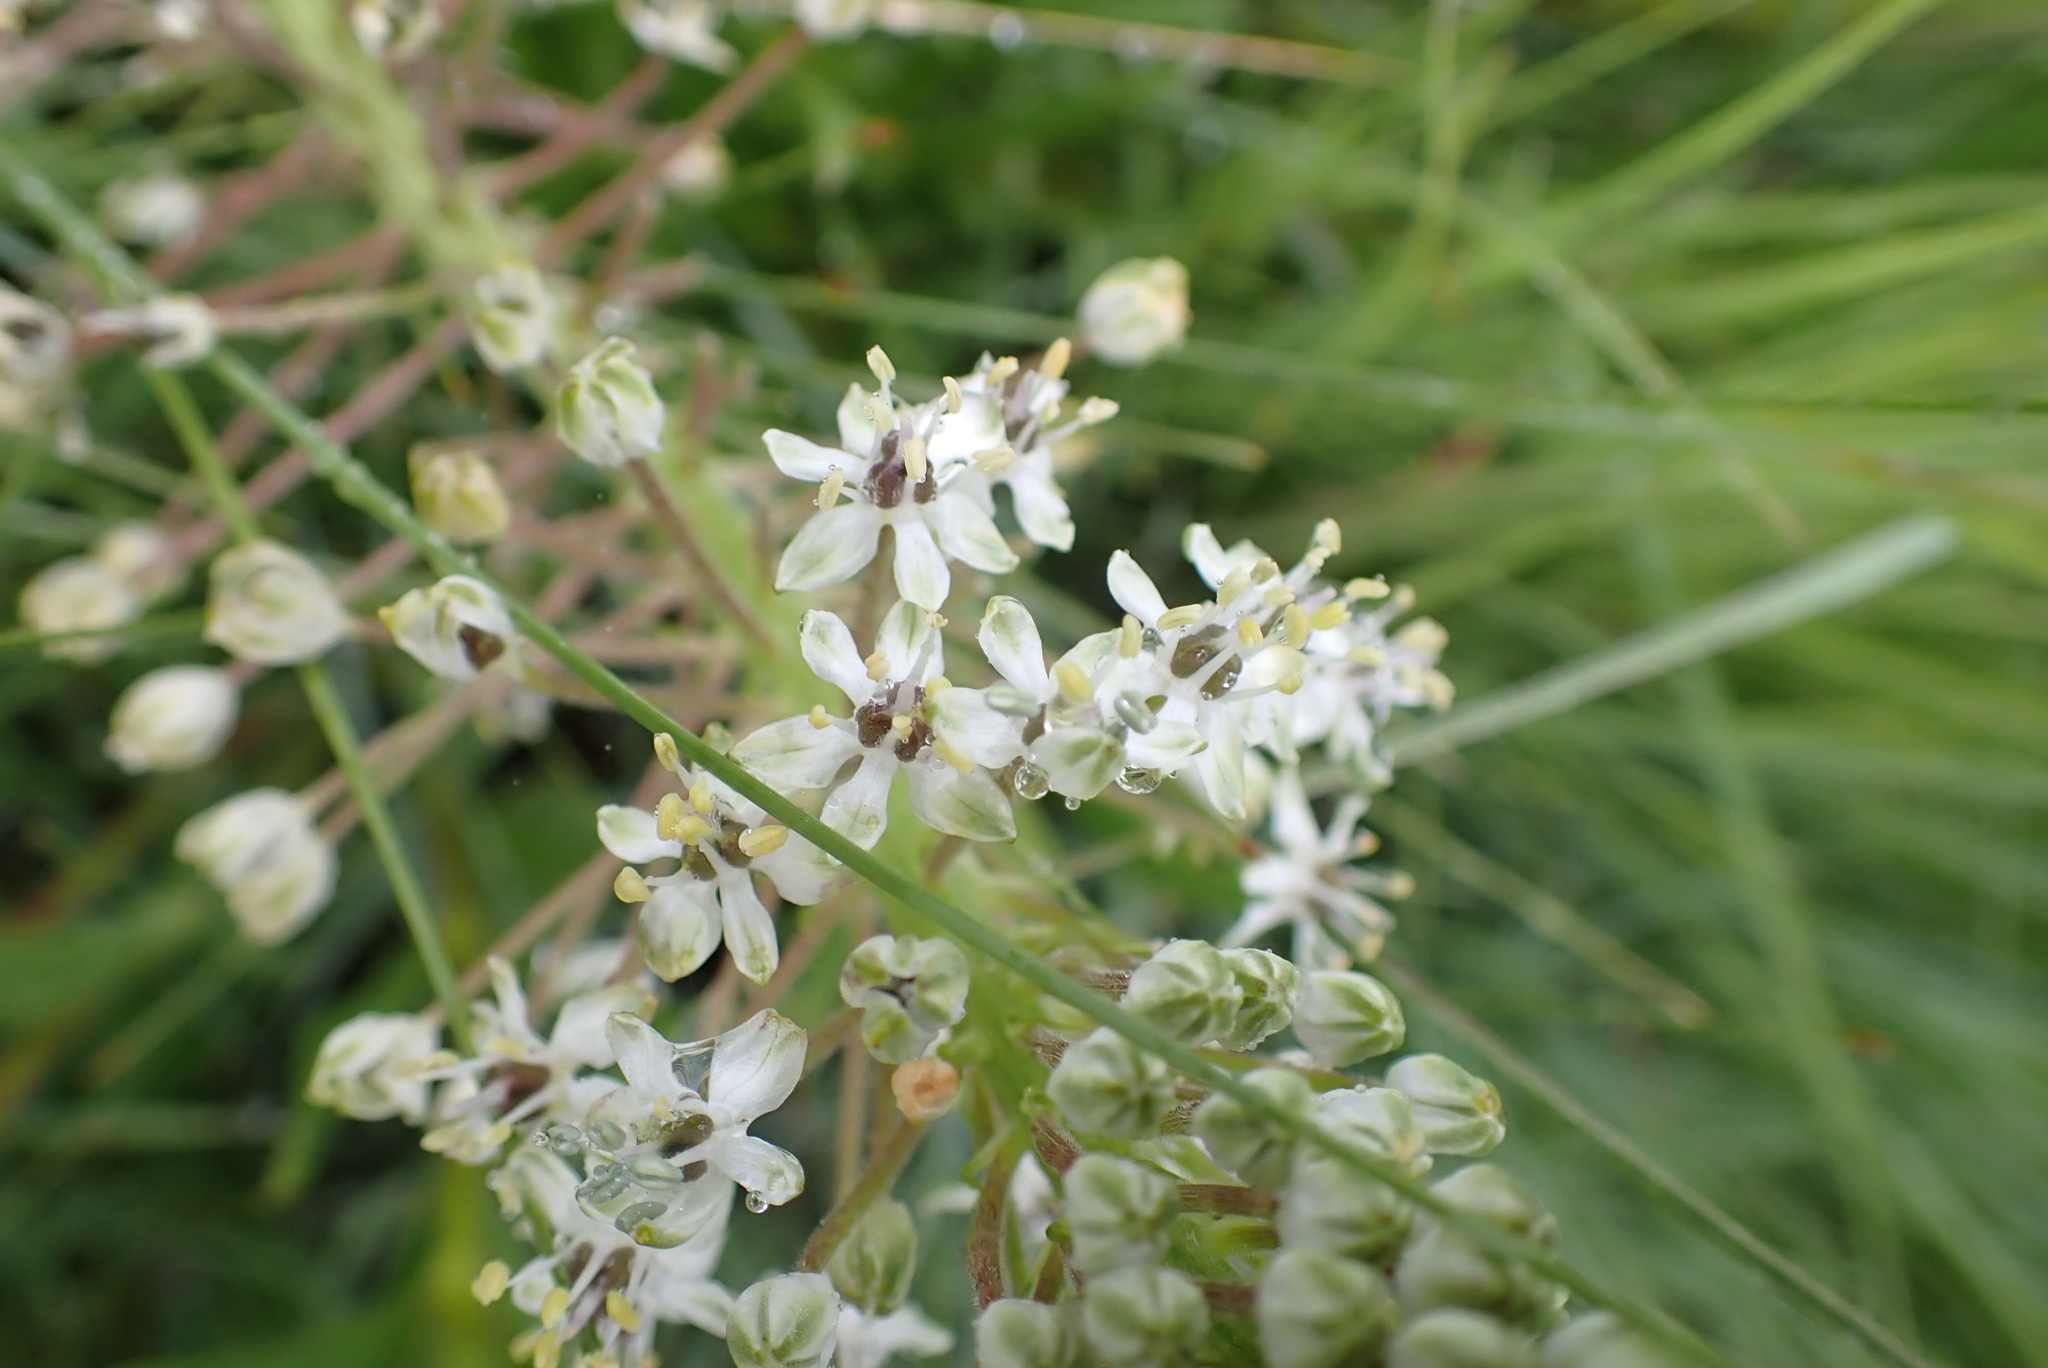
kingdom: Plantae
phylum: Tracheophyta
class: Liliopsida
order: Asparagales
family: Asparagaceae
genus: Schizocarphus
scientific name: Schizocarphus nervosus
